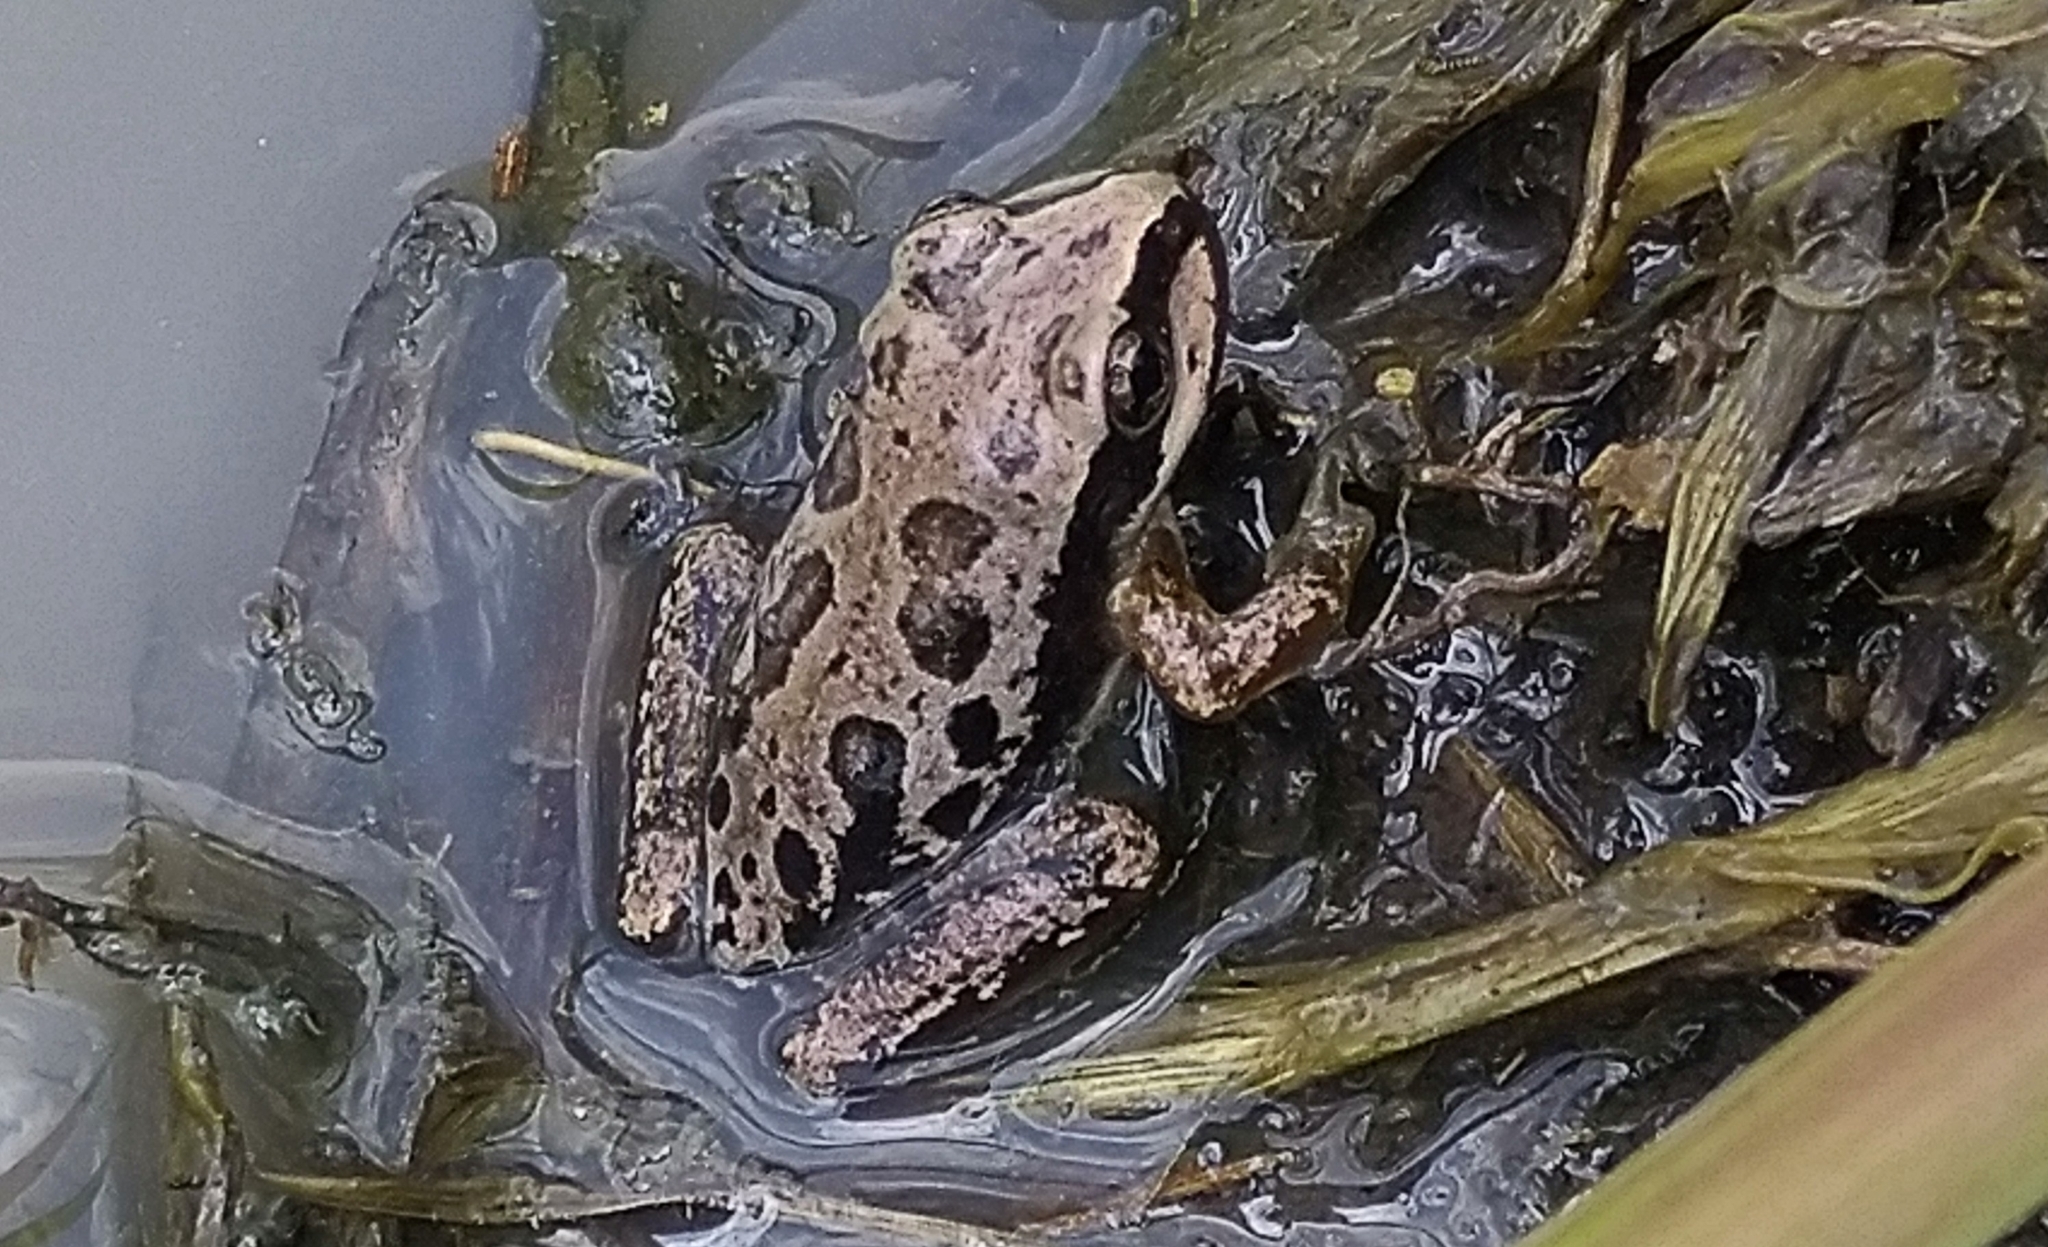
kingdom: Animalia
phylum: Chordata
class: Amphibia
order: Anura
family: Hylidae
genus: Smilisca
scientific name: Smilisca fodiens
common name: Lowland burrowing treefrog
